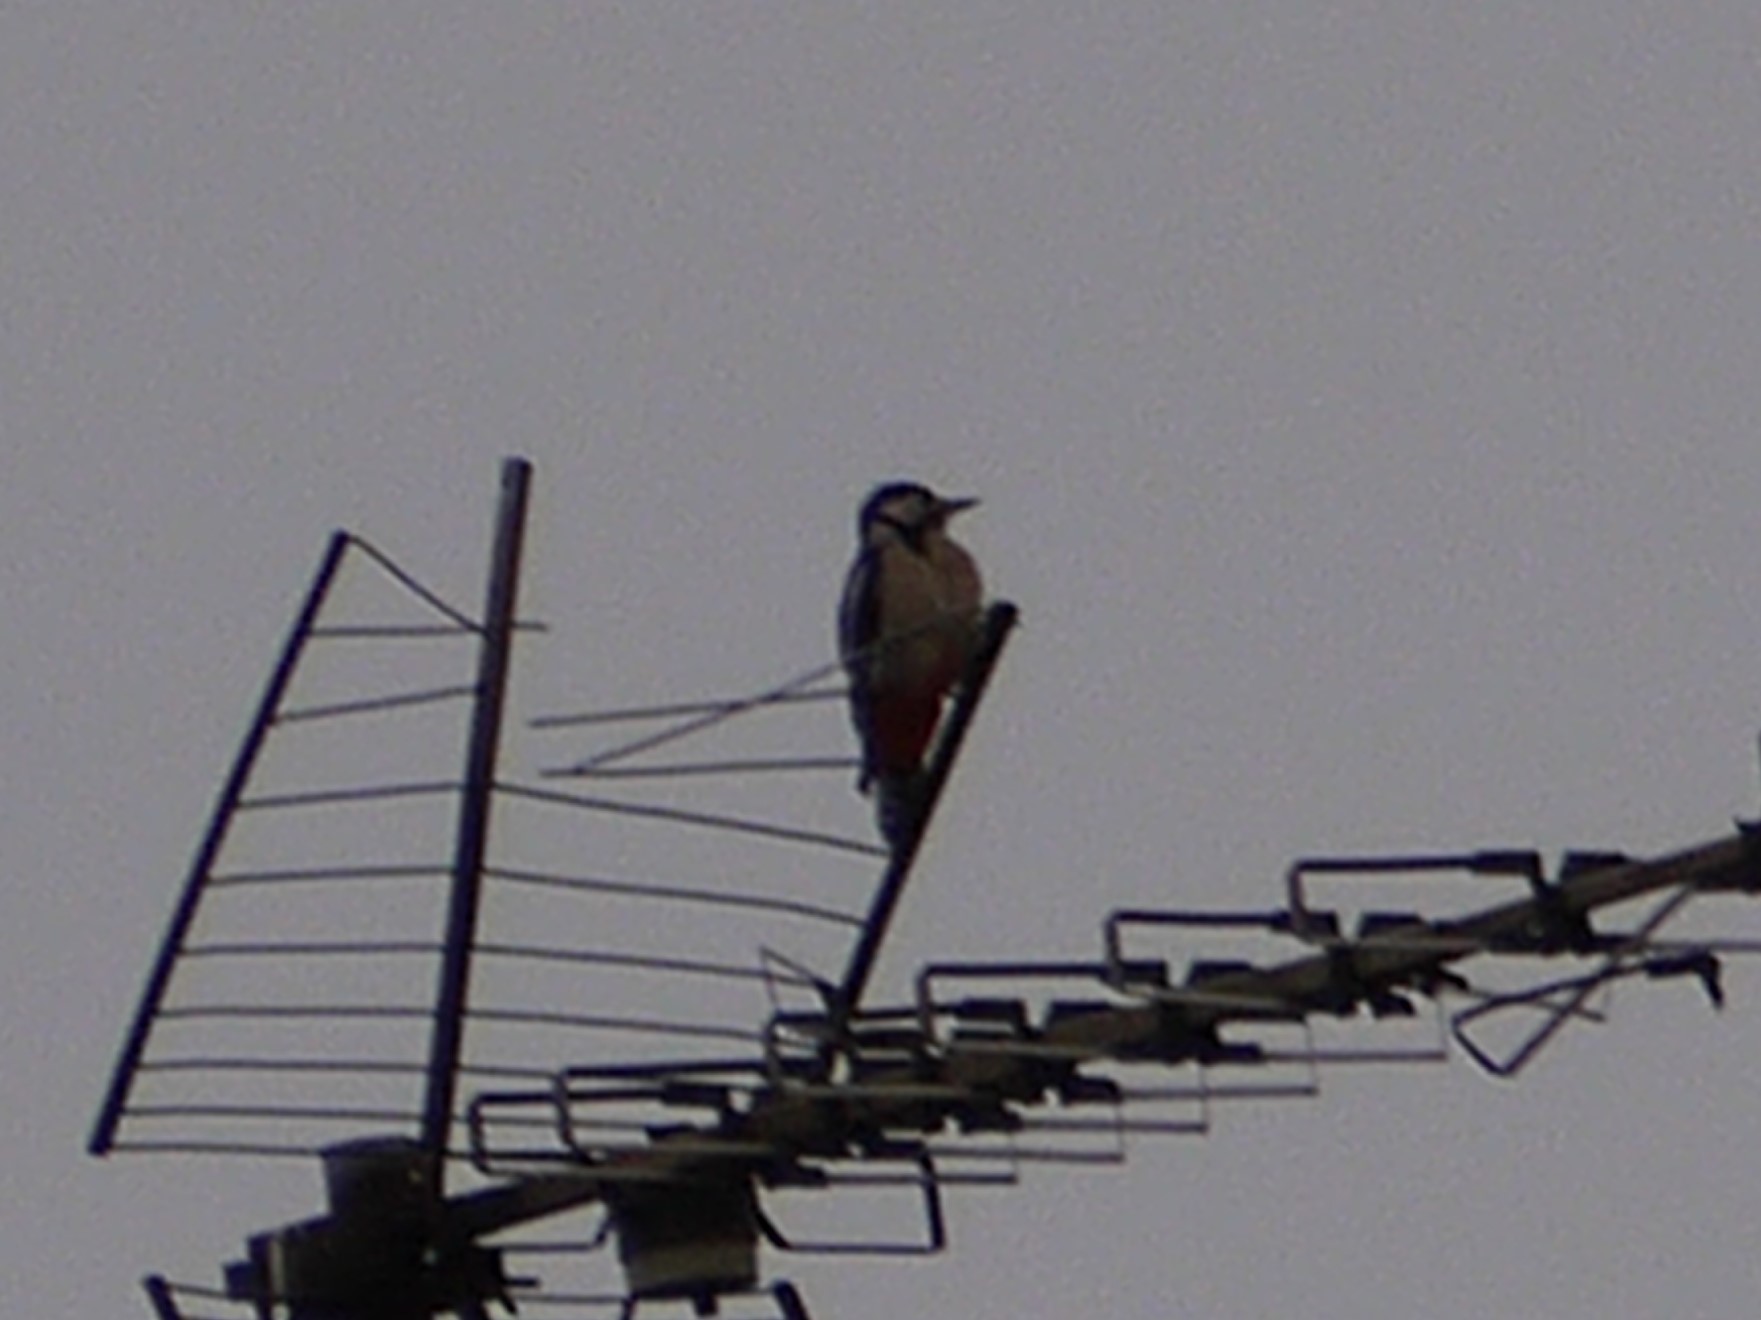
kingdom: Animalia
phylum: Chordata
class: Aves
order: Piciformes
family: Picidae
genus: Dendrocopos
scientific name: Dendrocopos major
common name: Great spotted woodpecker
